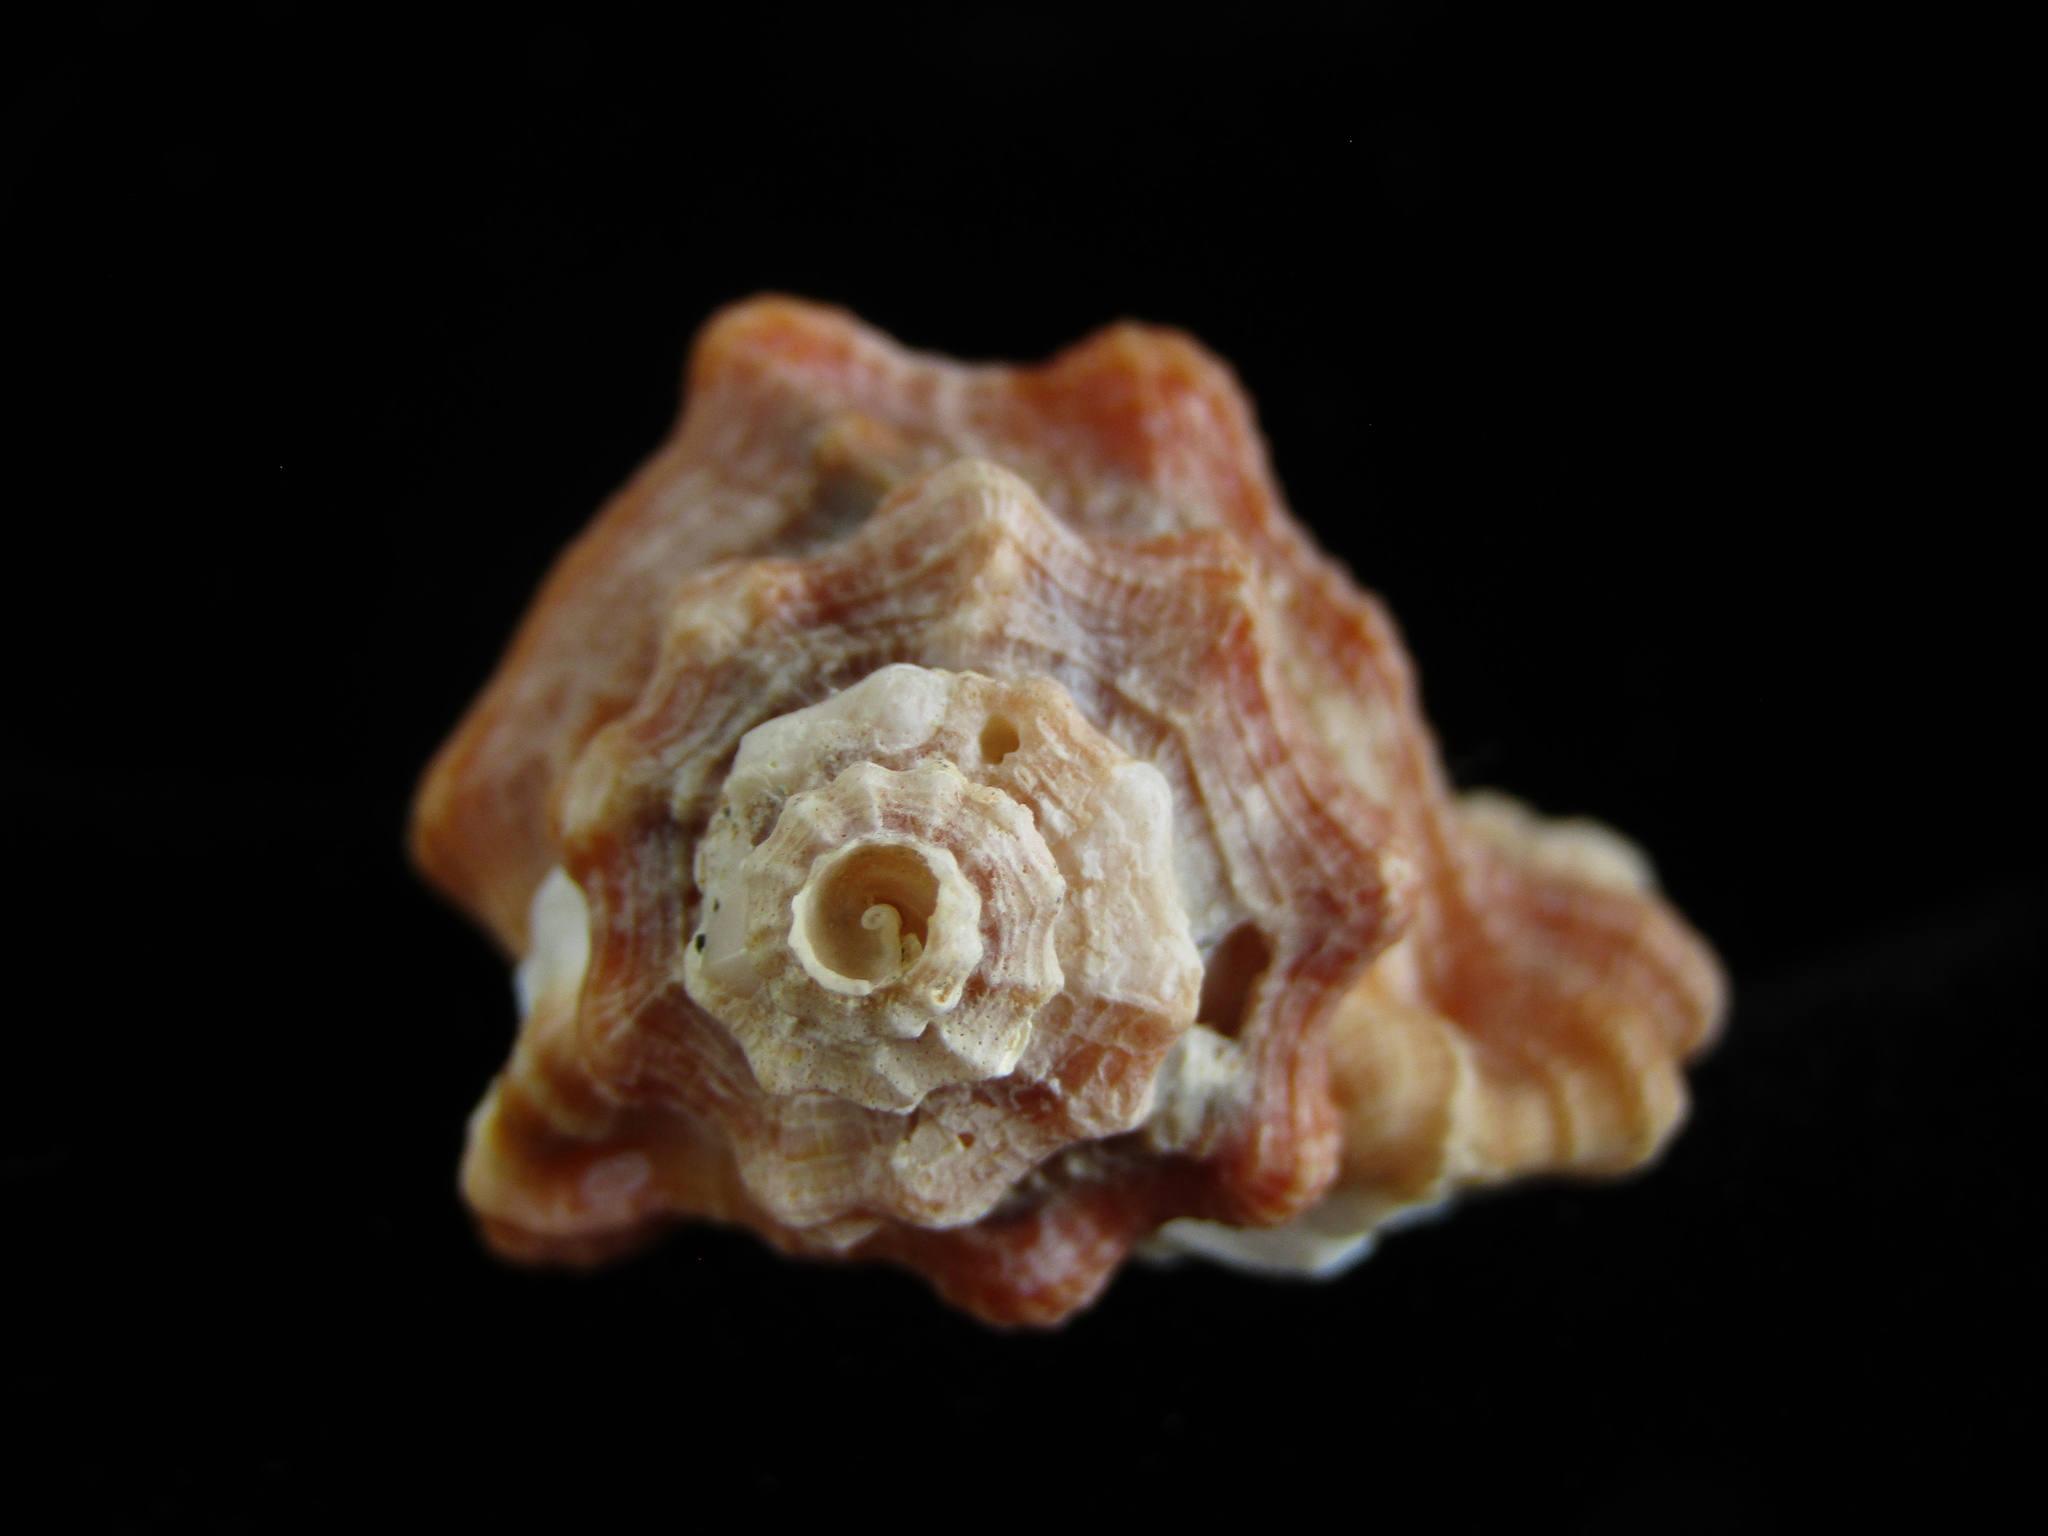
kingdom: Animalia
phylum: Mollusca
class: Gastropoda
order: Littorinimorpha
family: Cymatiidae
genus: Monoplex
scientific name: Monoplex exaratus
